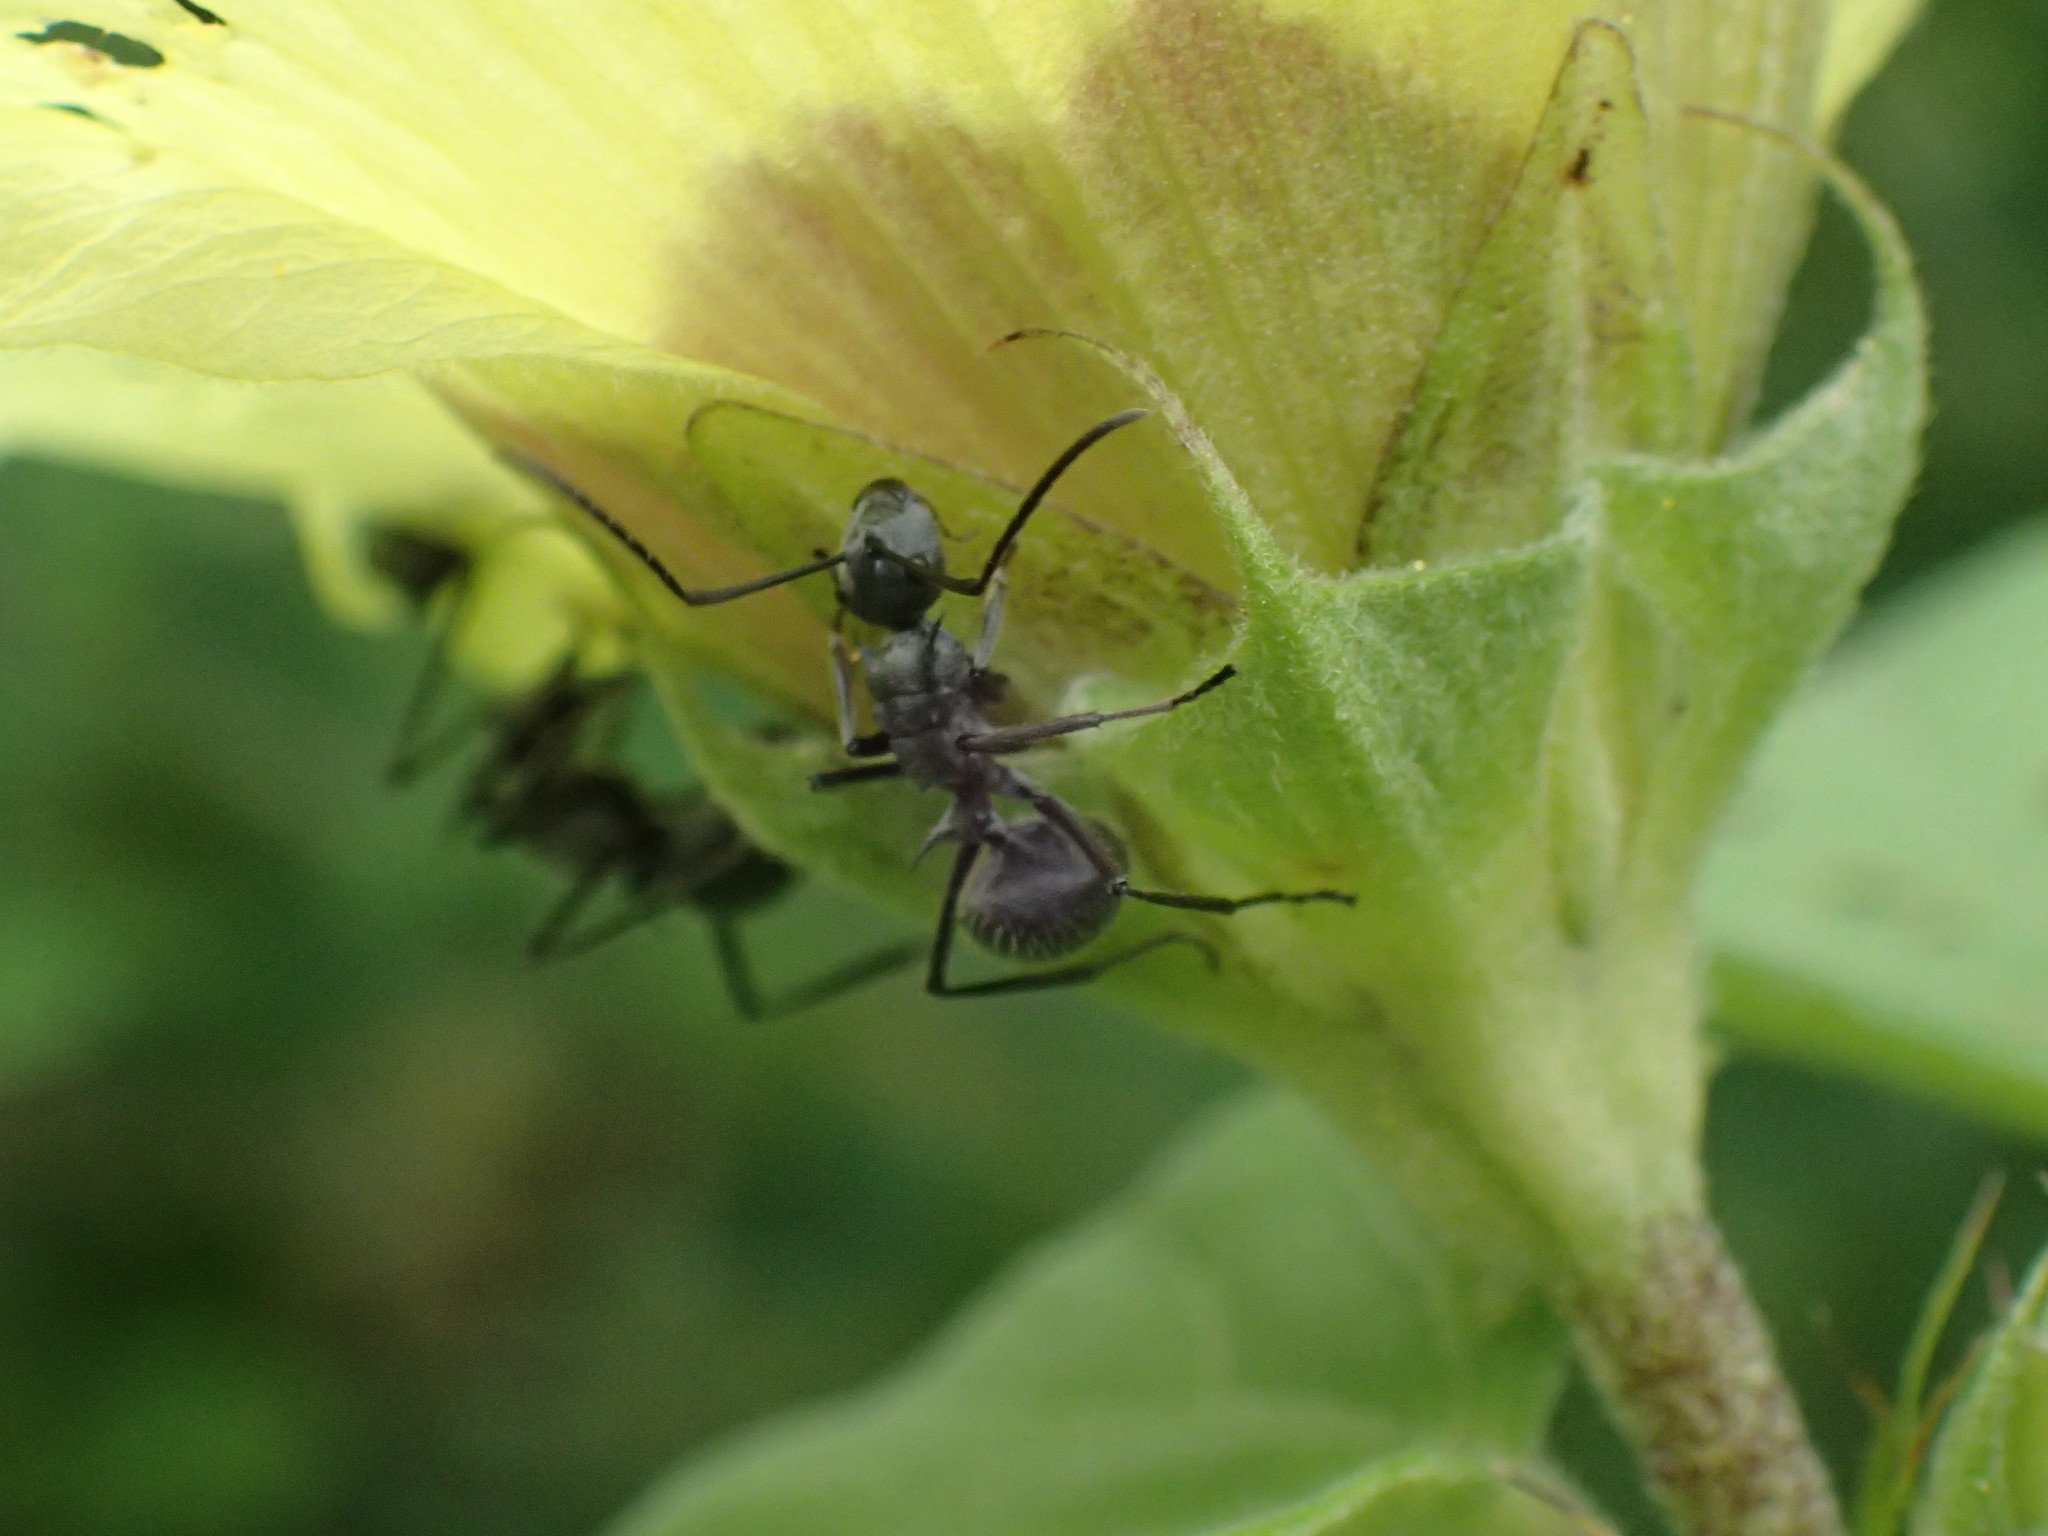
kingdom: Animalia
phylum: Arthropoda
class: Insecta
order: Hymenoptera
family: Formicidae
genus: Polyrhachis
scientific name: Polyrhachis schistacea
